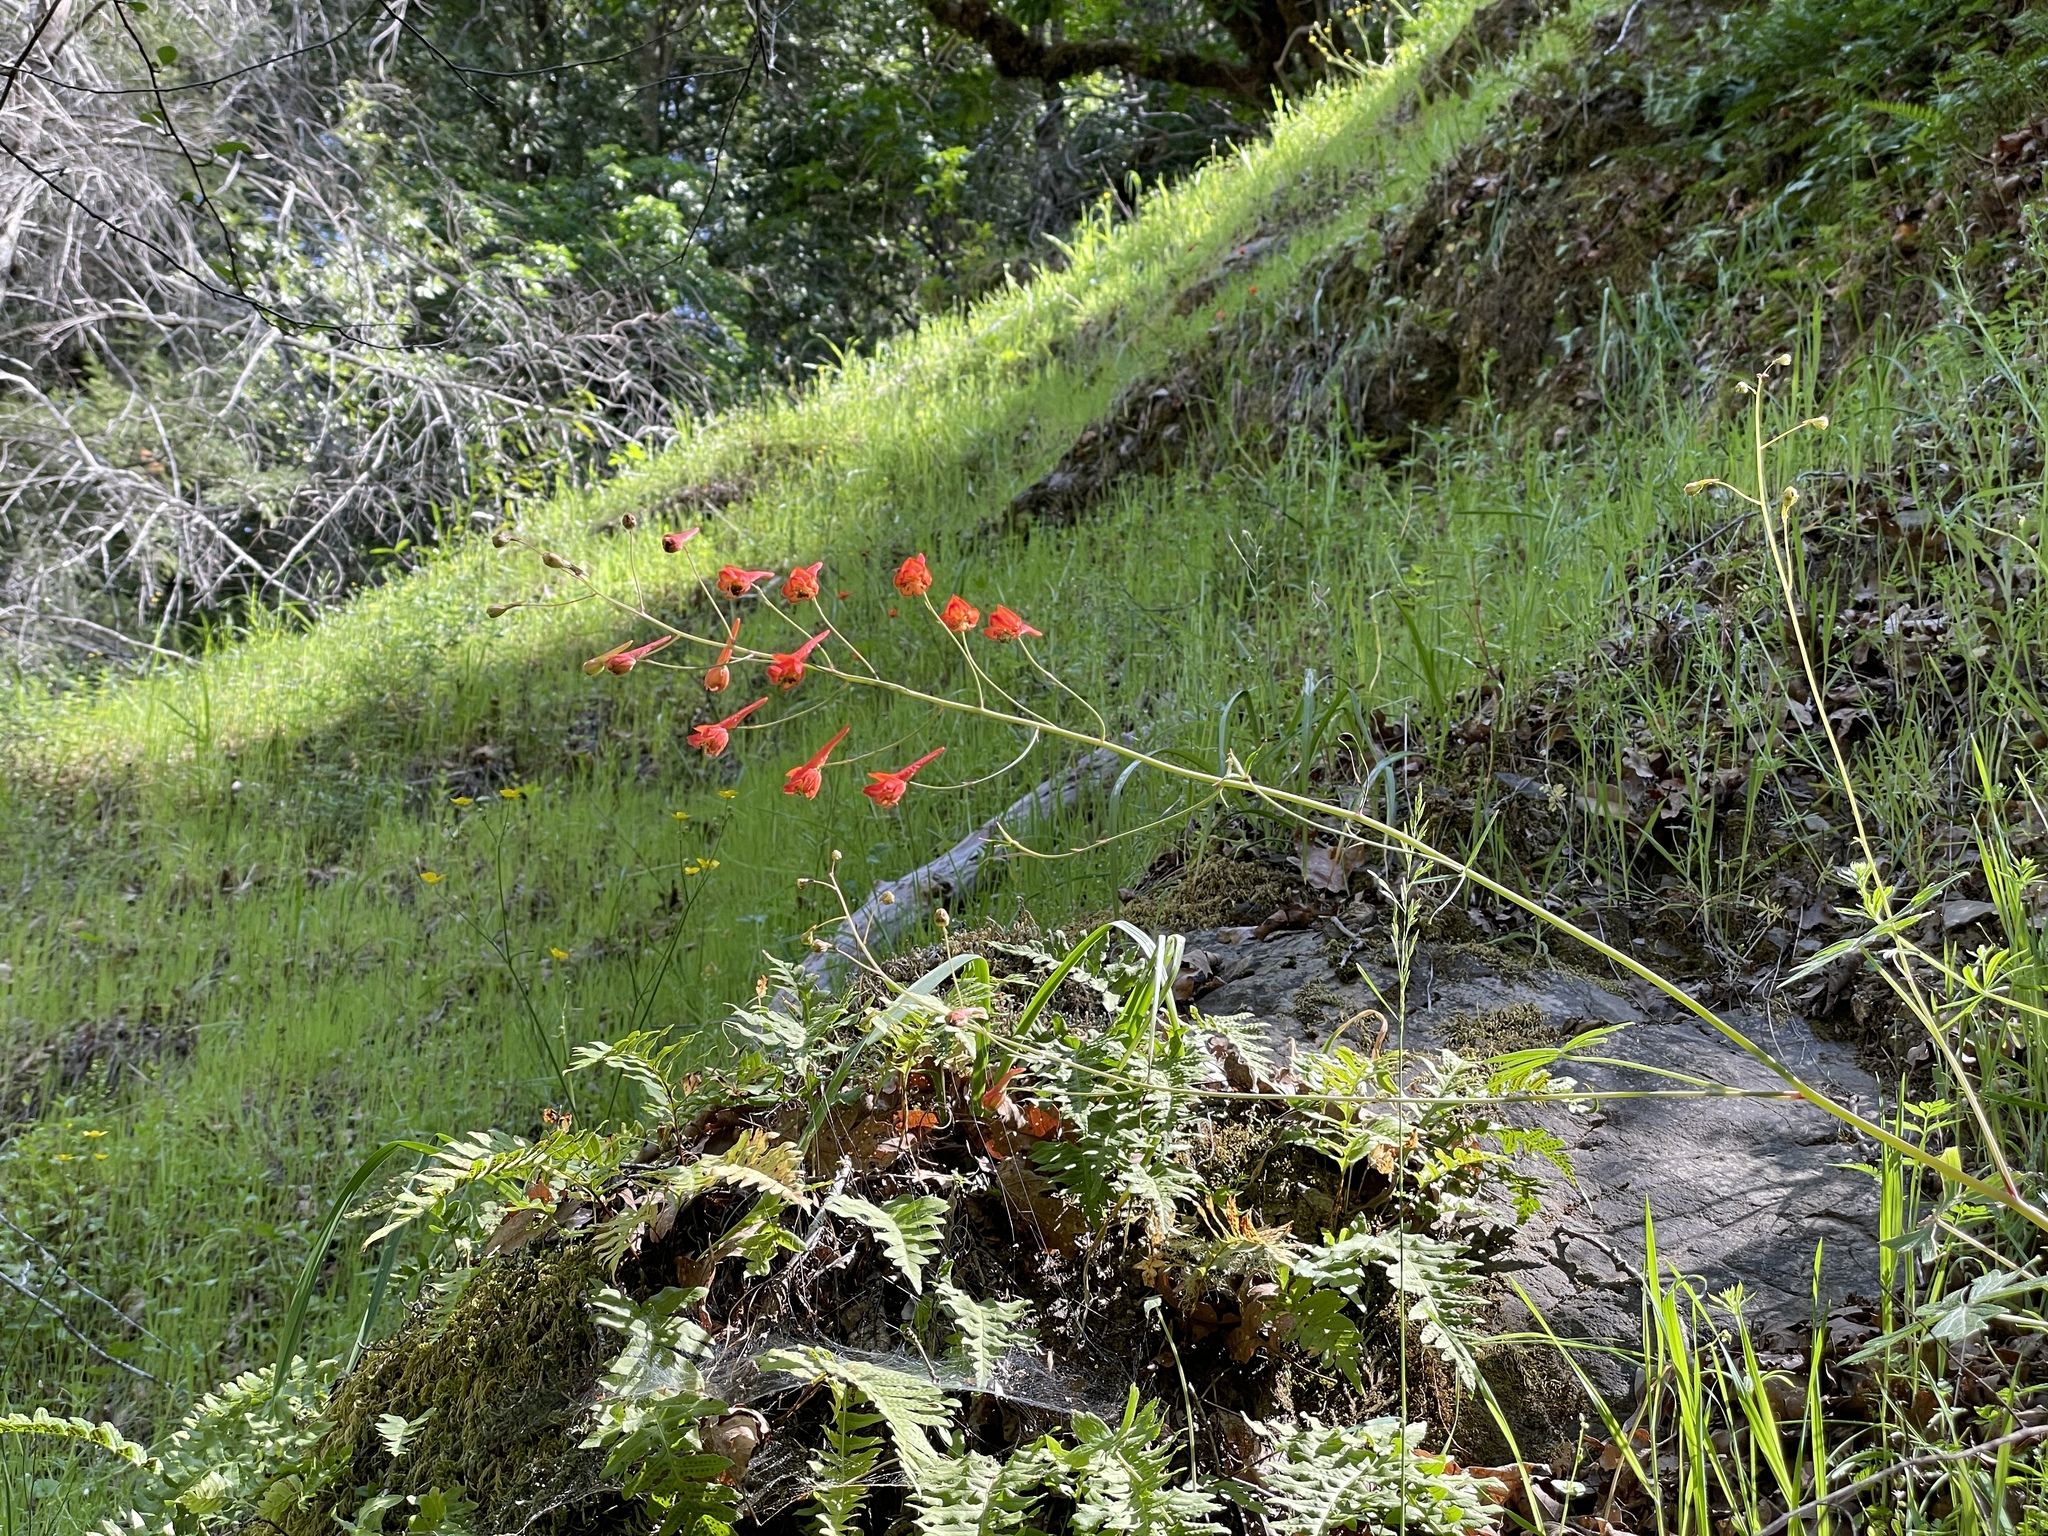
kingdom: Plantae
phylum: Tracheophyta
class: Magnoliopsida
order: Ranunculales
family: Ranunculaceae
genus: Delphinium
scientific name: Delphinium nudicaule
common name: Red larkspur
